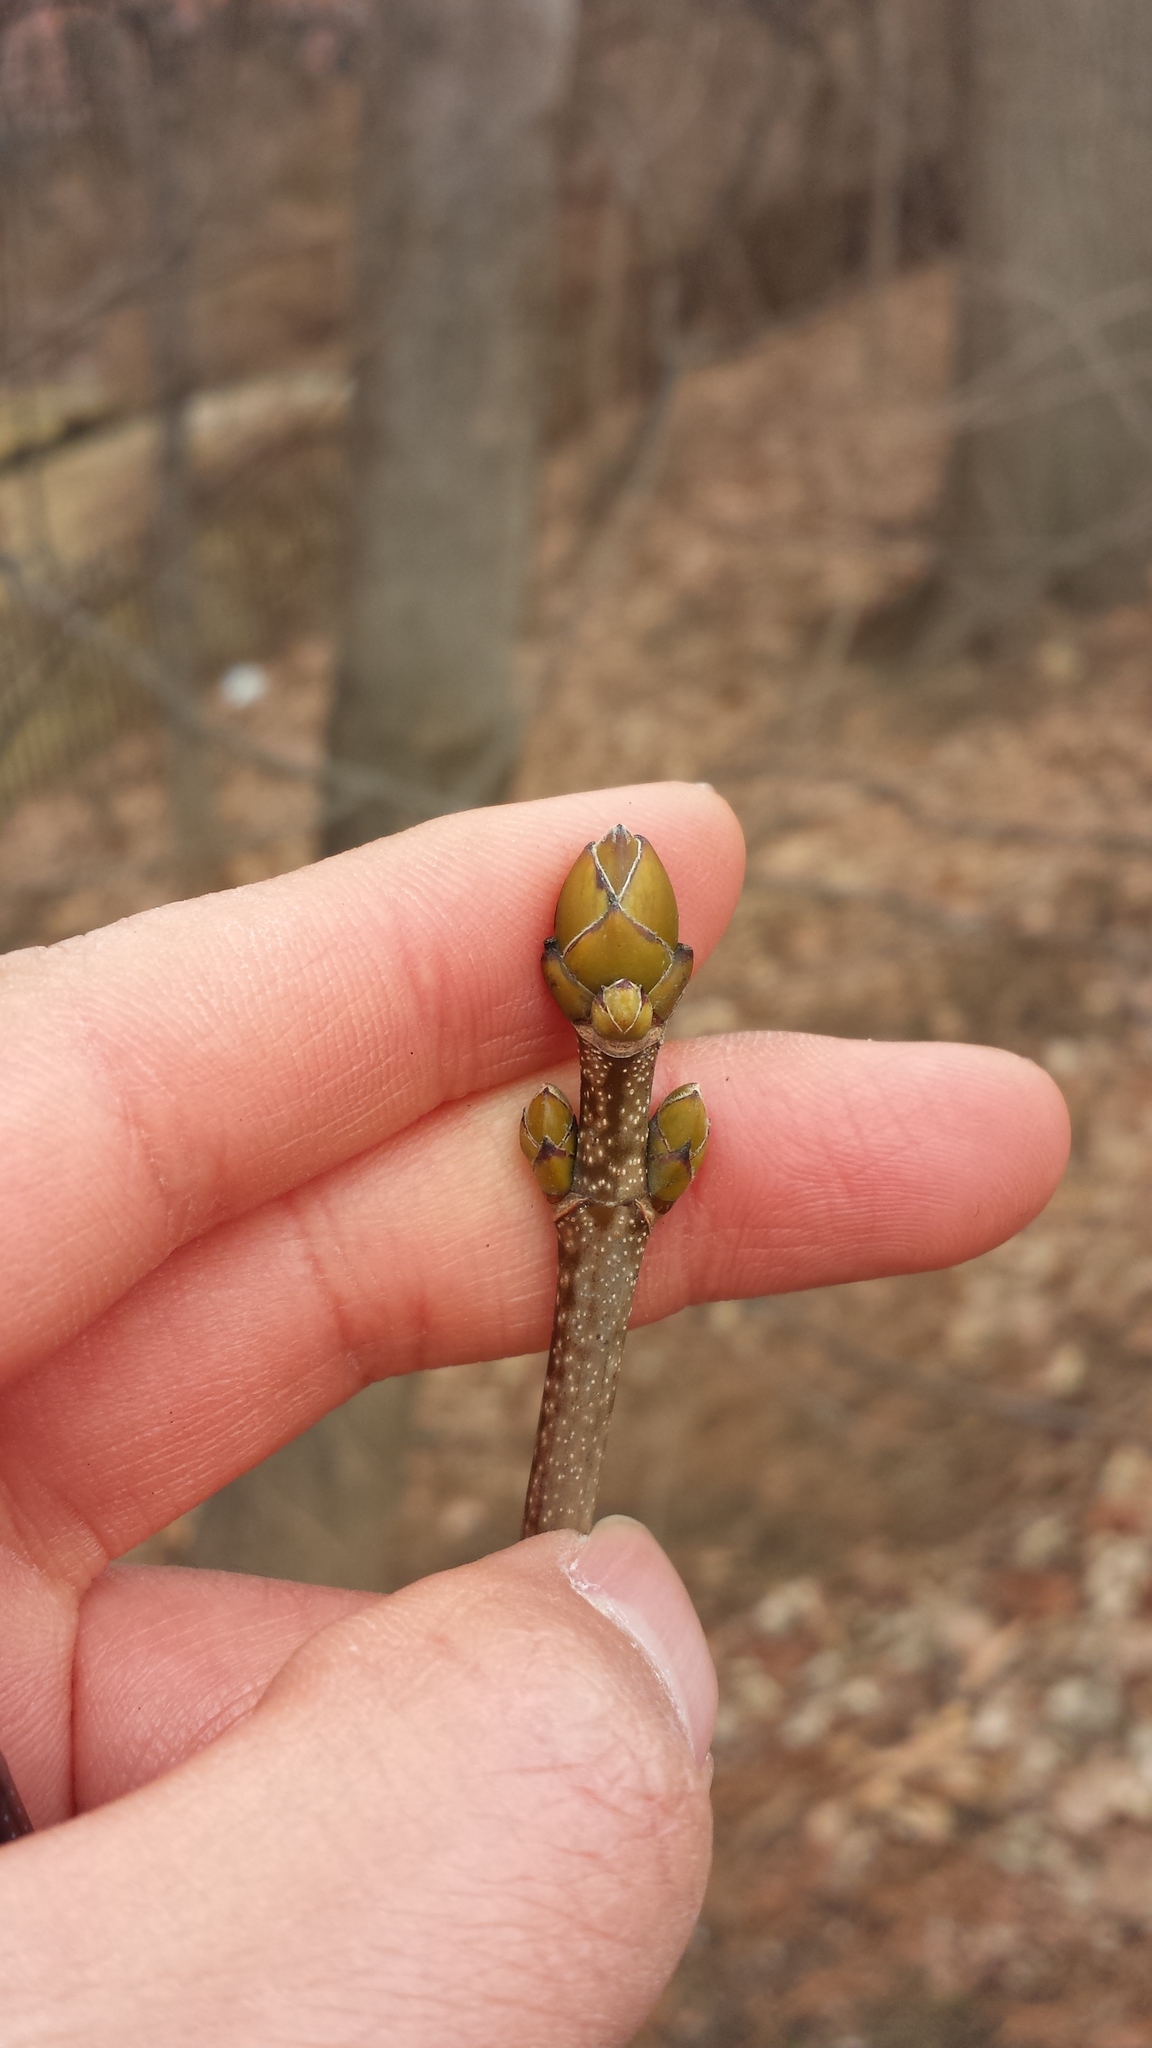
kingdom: Plantae
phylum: Tracheophyta
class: Magnoliopsida
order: Sapindales
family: Sapindaceae
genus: Acer
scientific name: Acer pseudoplatanus
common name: Sycamore
